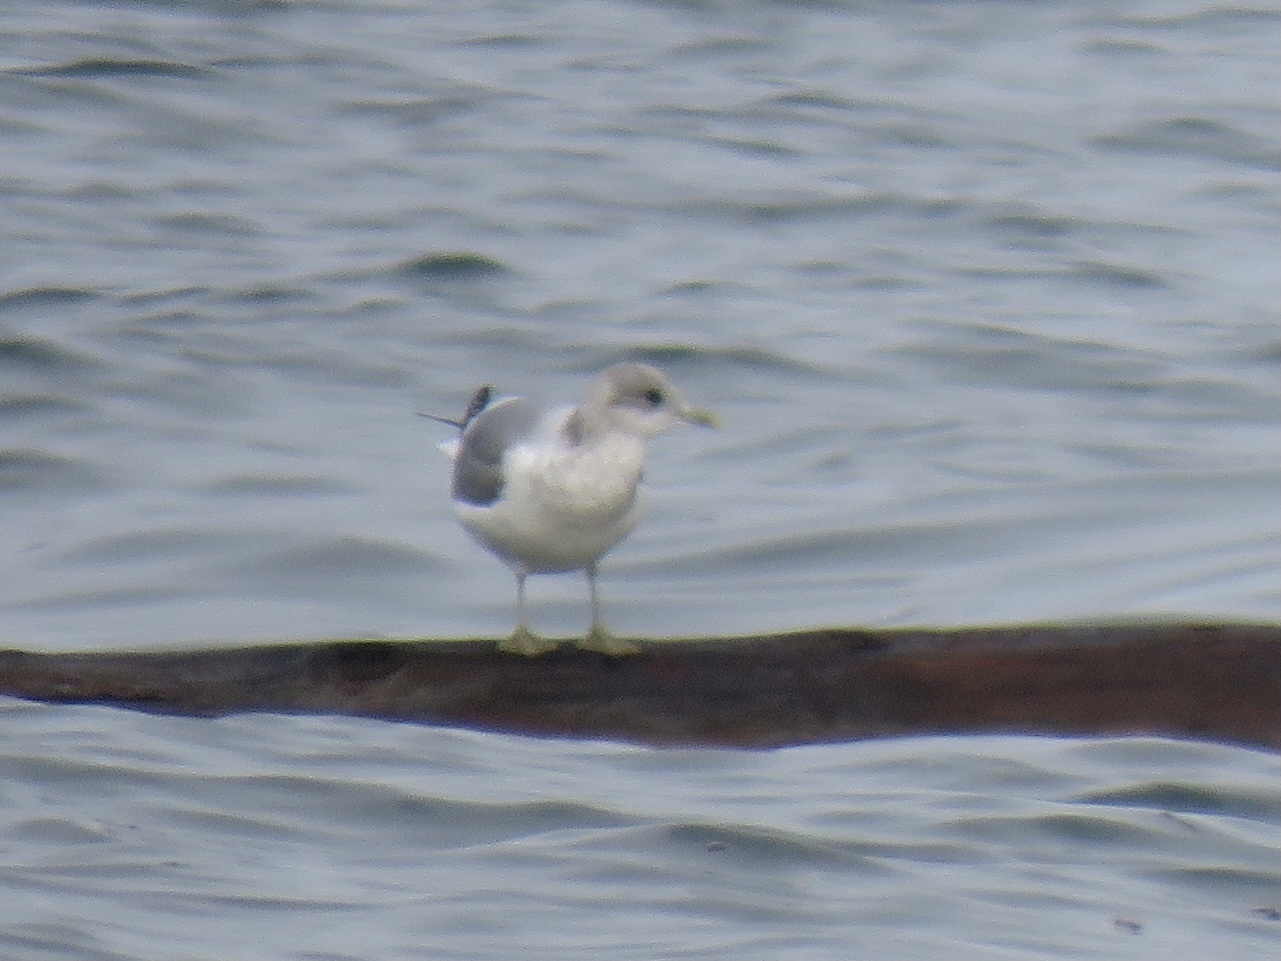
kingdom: Animalia
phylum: Chordata
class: Aves
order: Charadriiformes
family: Laridae
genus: Larus
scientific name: Larus brachyrhynchus
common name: Short-billed gull
